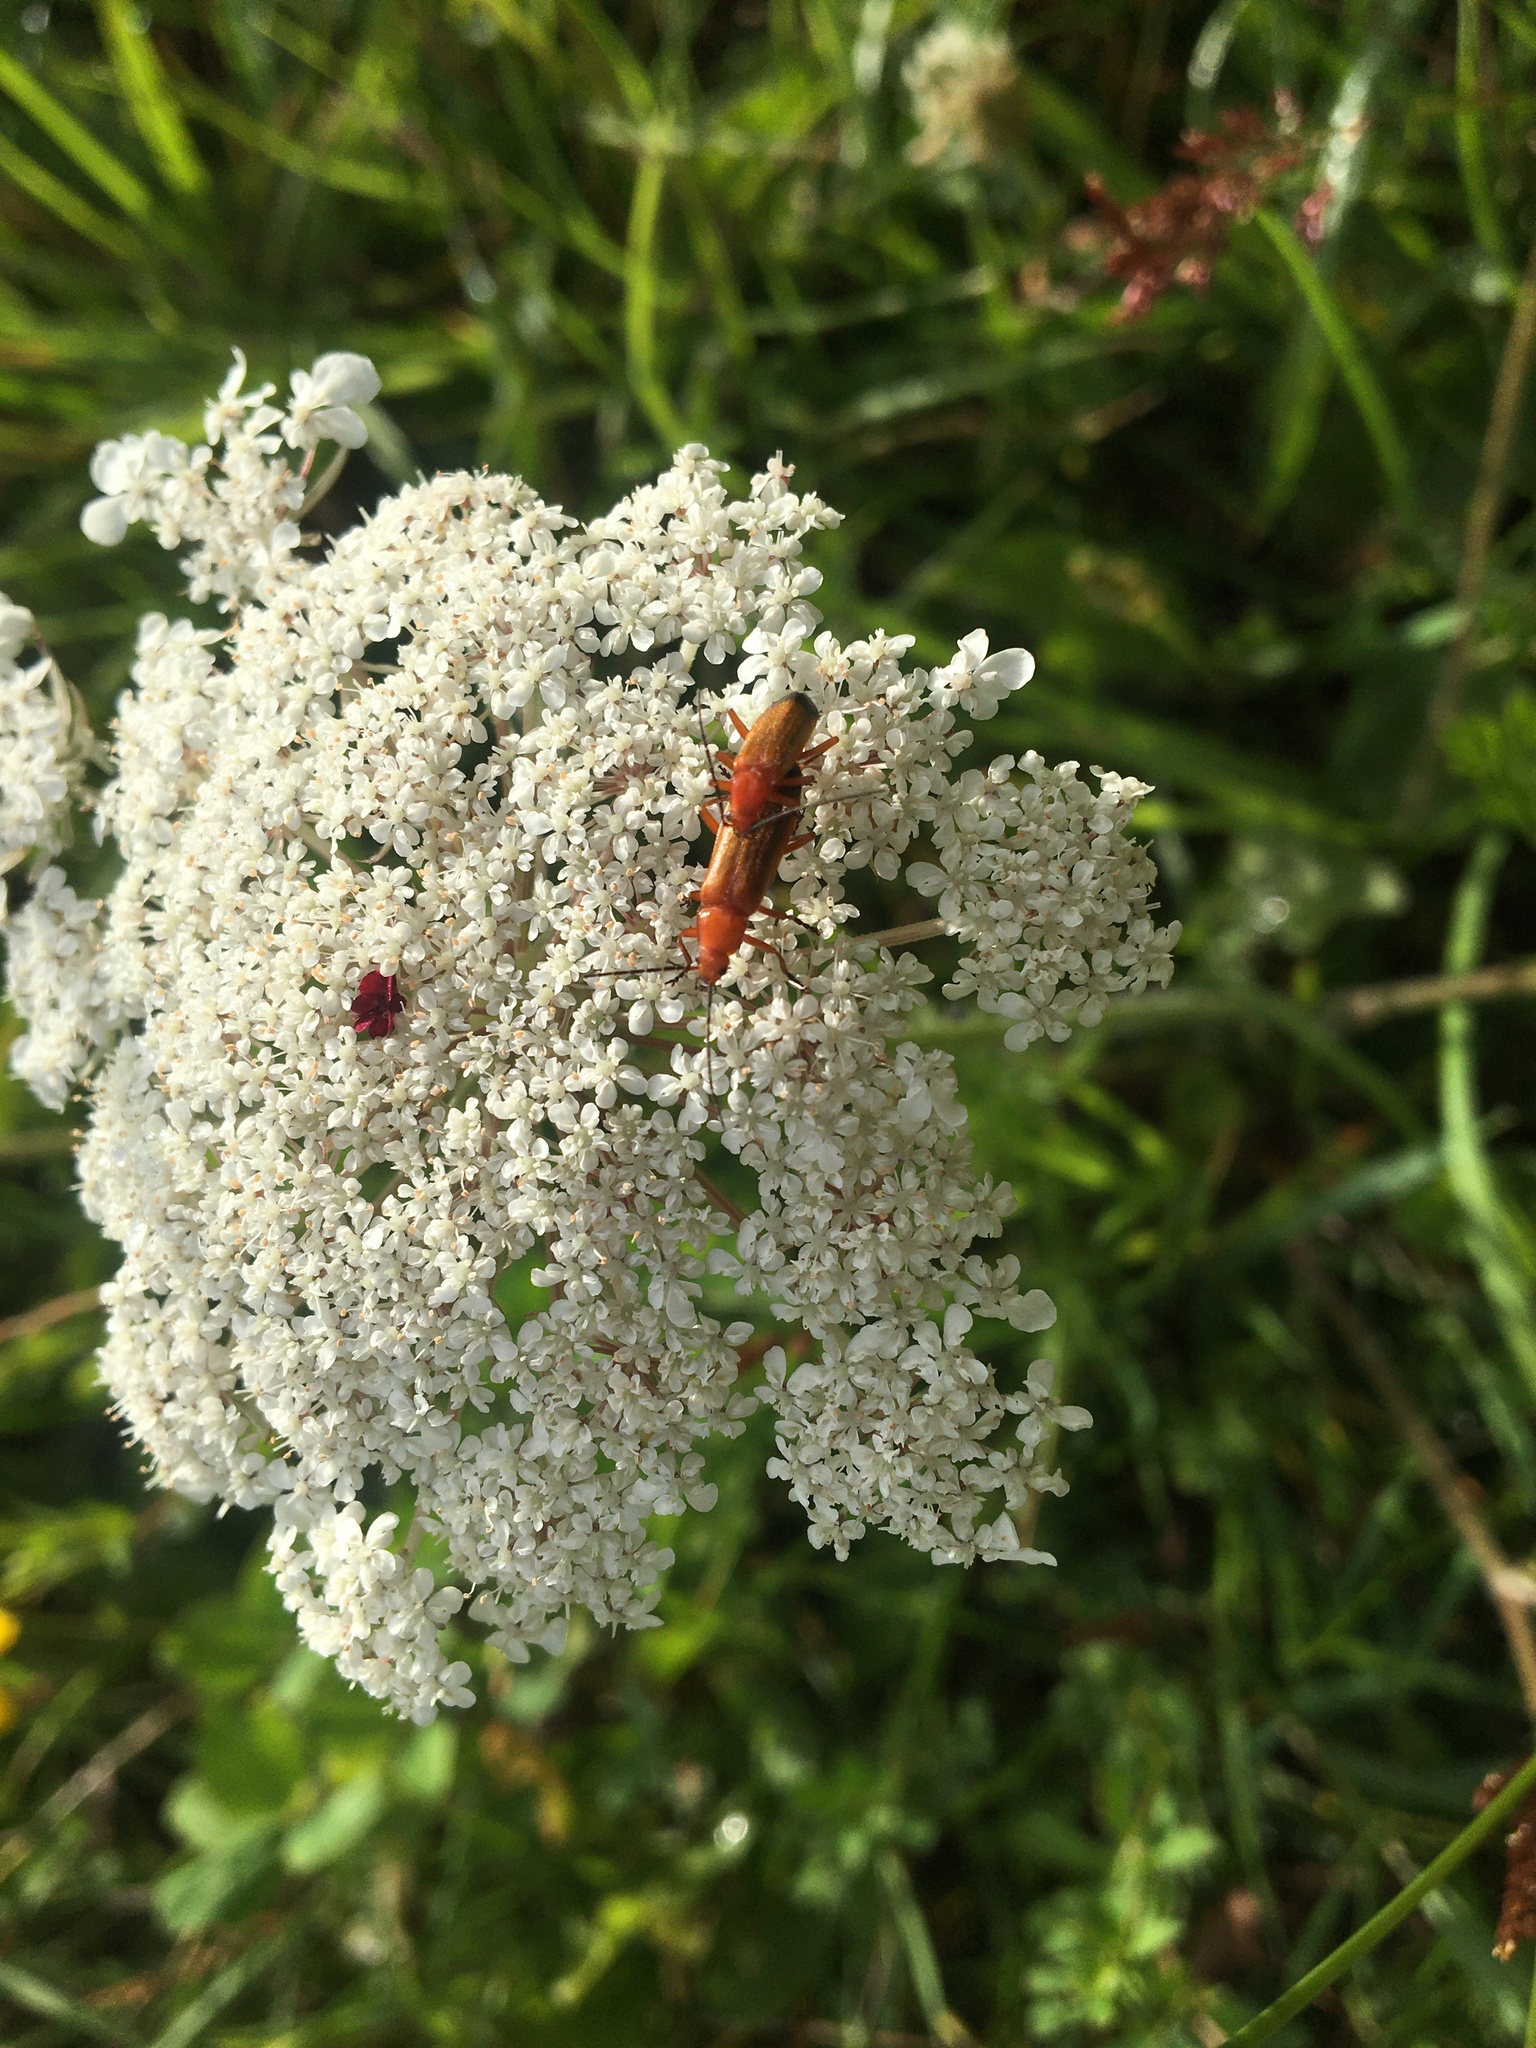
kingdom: Animalia
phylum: Arthropoda
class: Insecta
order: Coleoptera
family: Cantharidae
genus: Rhagonycha
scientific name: Rhagonycha fulva
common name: Common red soldier beetle
